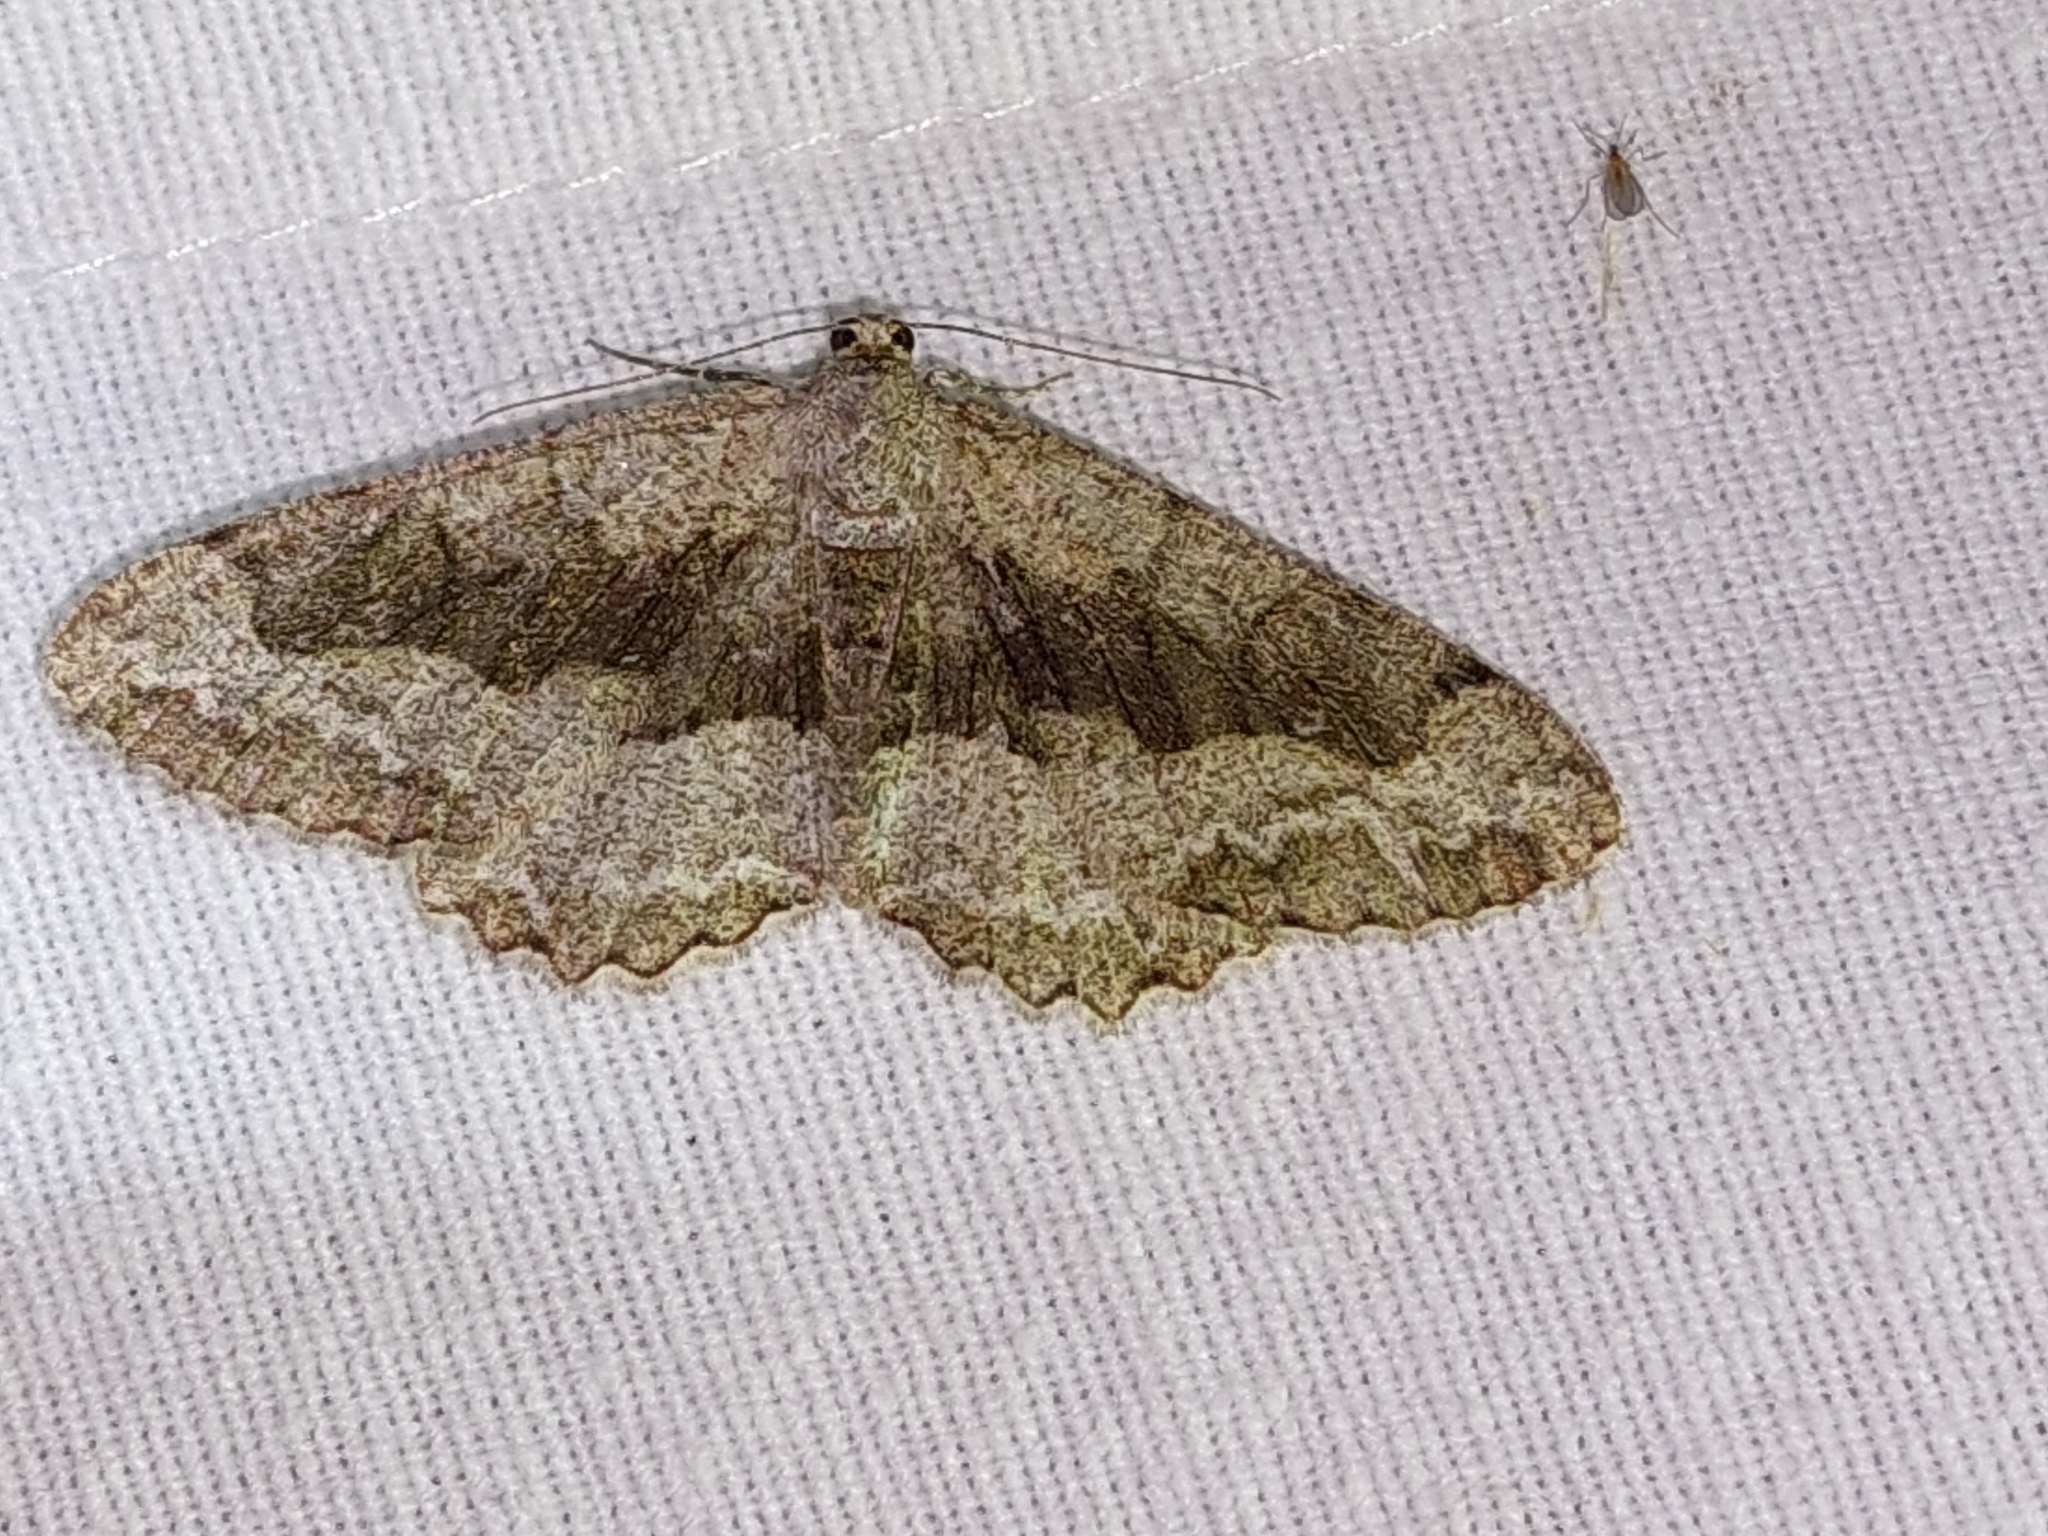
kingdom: Animalia
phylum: Arthropoda
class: Insecta
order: Lepidoptera
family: Geometridae
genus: Alcis
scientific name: Alcis repandata
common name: Mottled beauty
